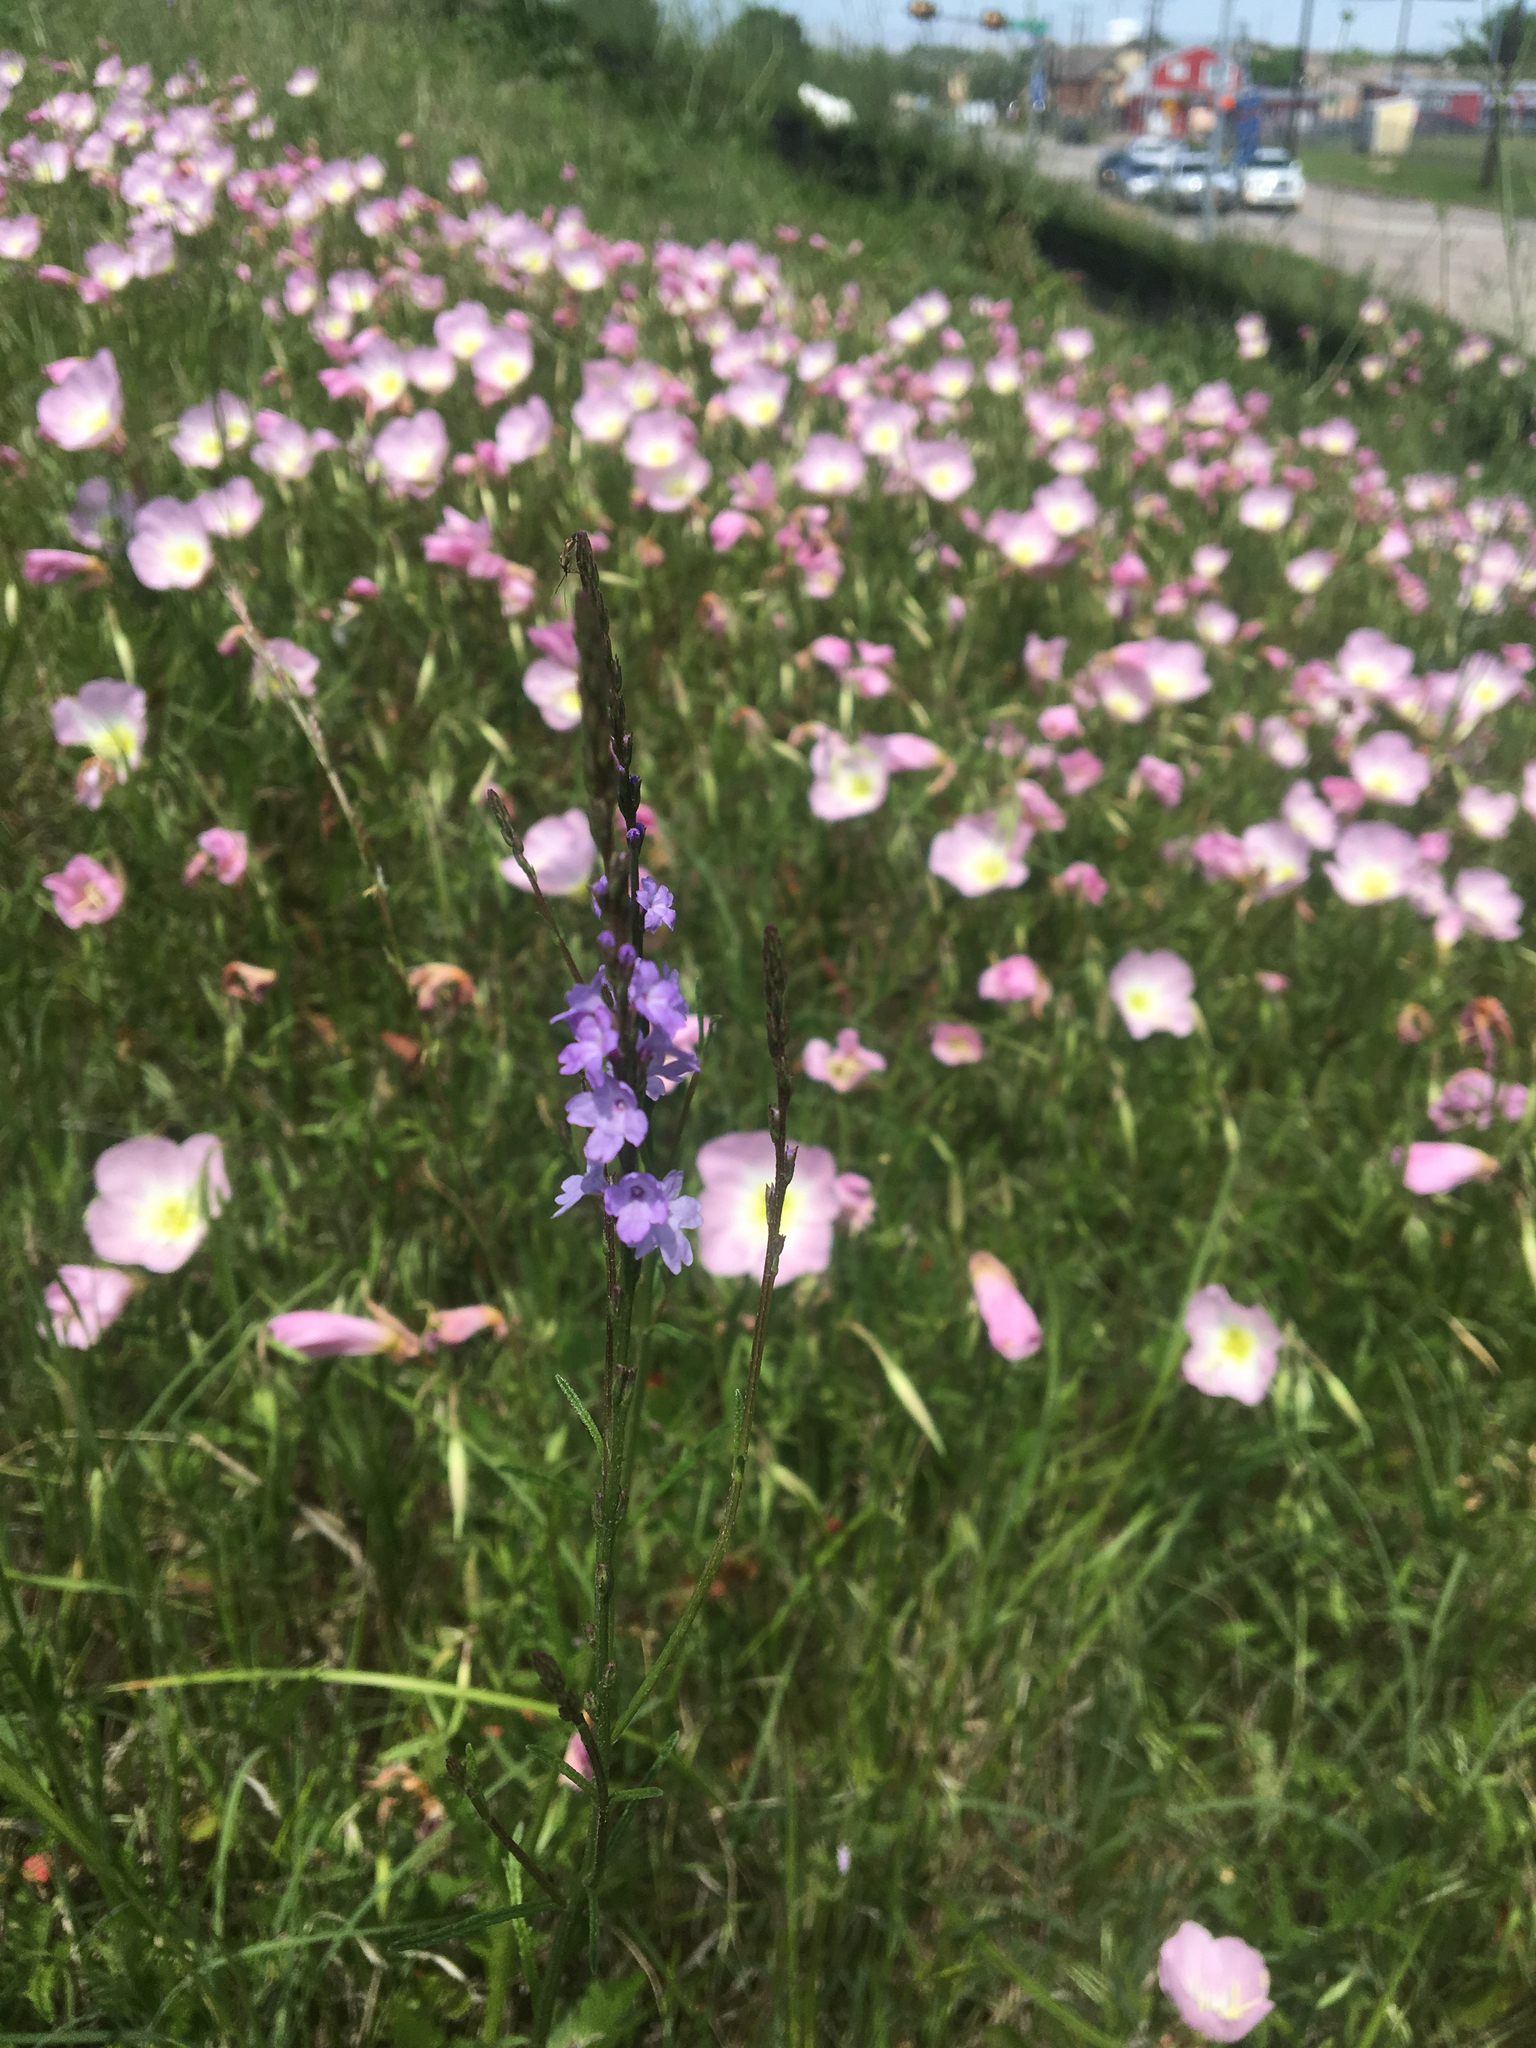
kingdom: Plantae
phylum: Tracheophyta
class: Magnoliopsida
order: Lamiales
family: Verbenaceae
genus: Verbena
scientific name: Verbena halei
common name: Texas vervain
